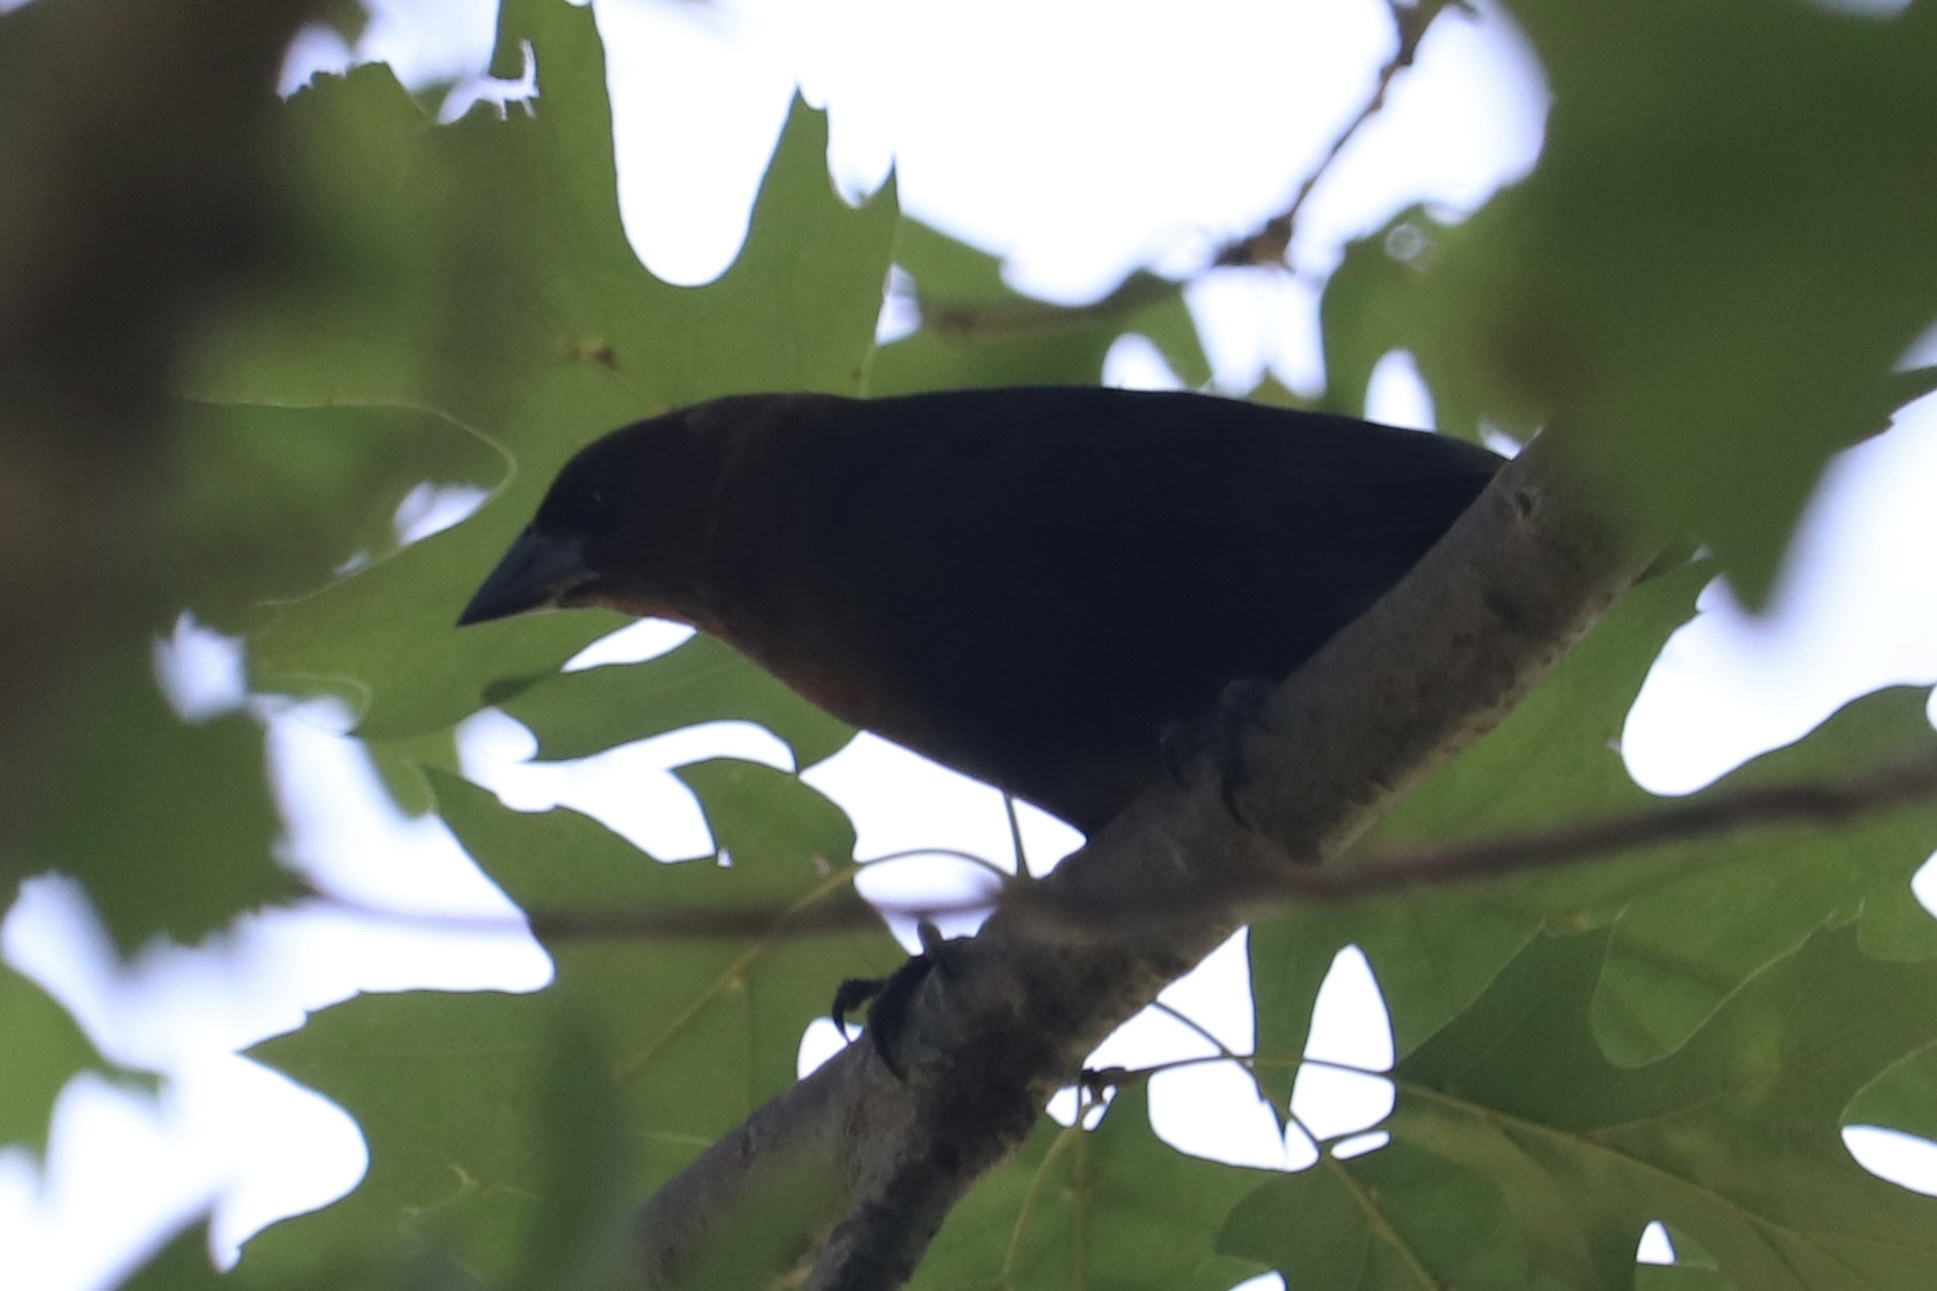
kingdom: Animalia
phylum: Chordata
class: Aves
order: Passeriformes
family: Icteridae
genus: Molothrus
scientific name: Molothrus ater
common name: Brown-headed cowbird
